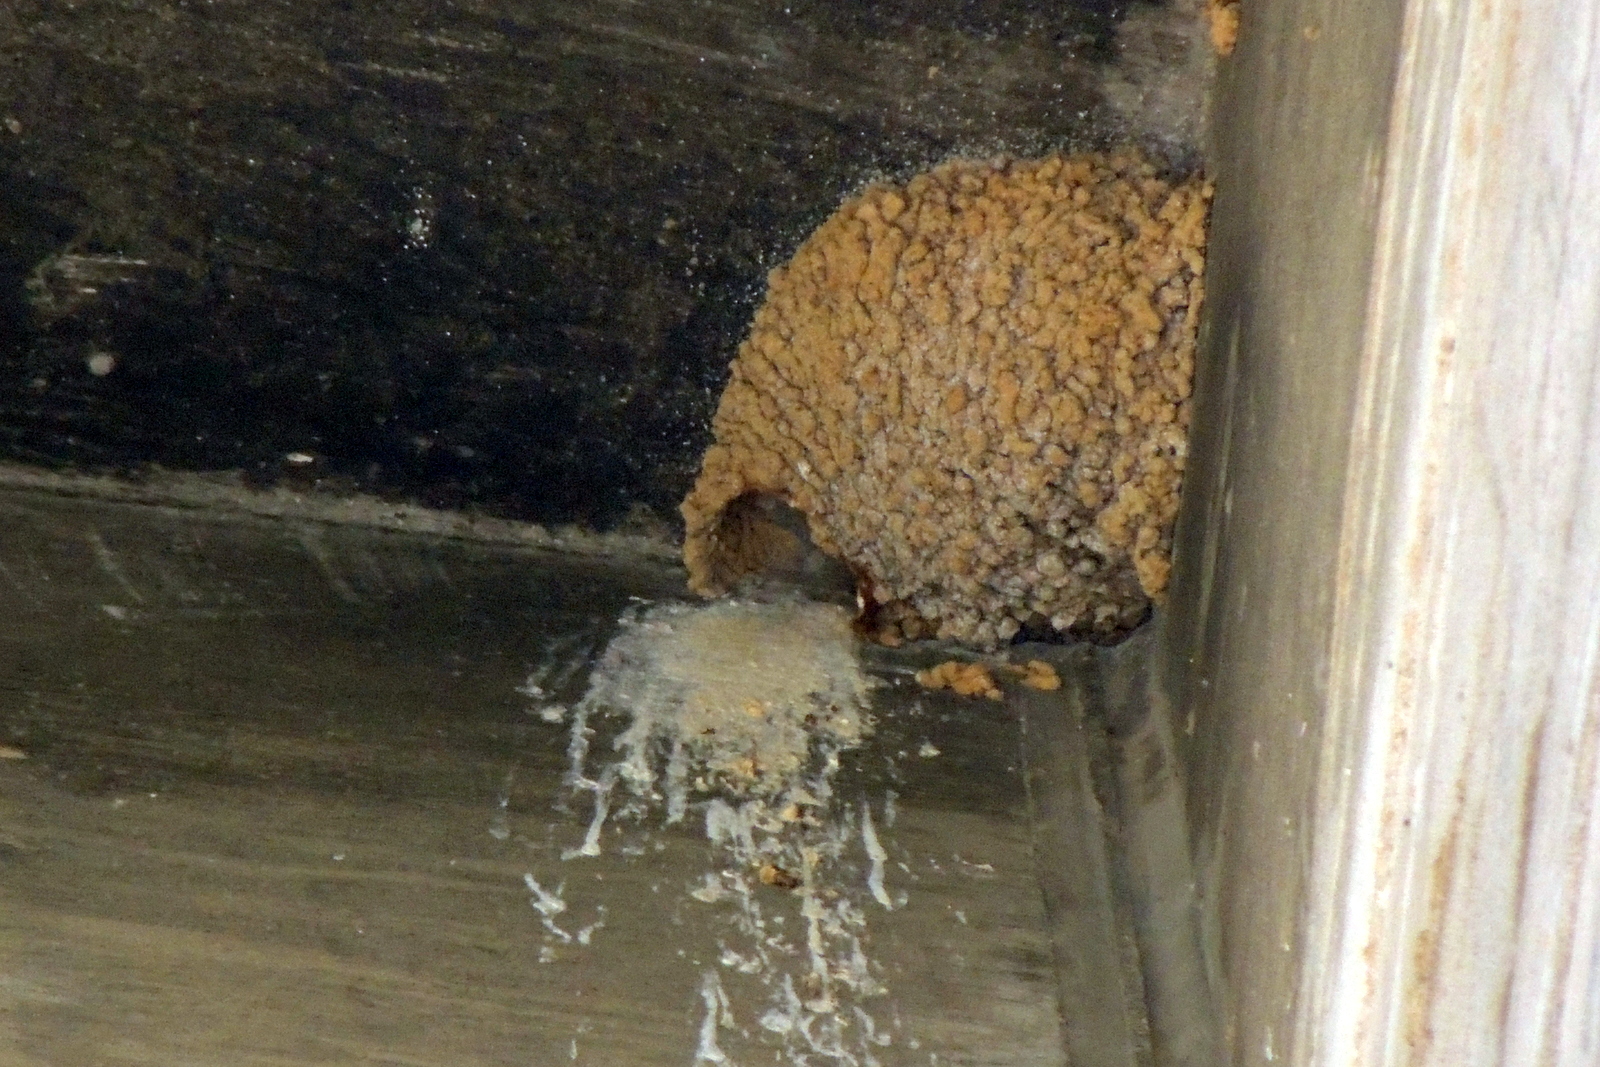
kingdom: Animalia
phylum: Chordata
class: Aves
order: Passeriformes
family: Hirundinidae
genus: Petrochelidon
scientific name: Petrochelidon pyrrhonota
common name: American cliff swallow
